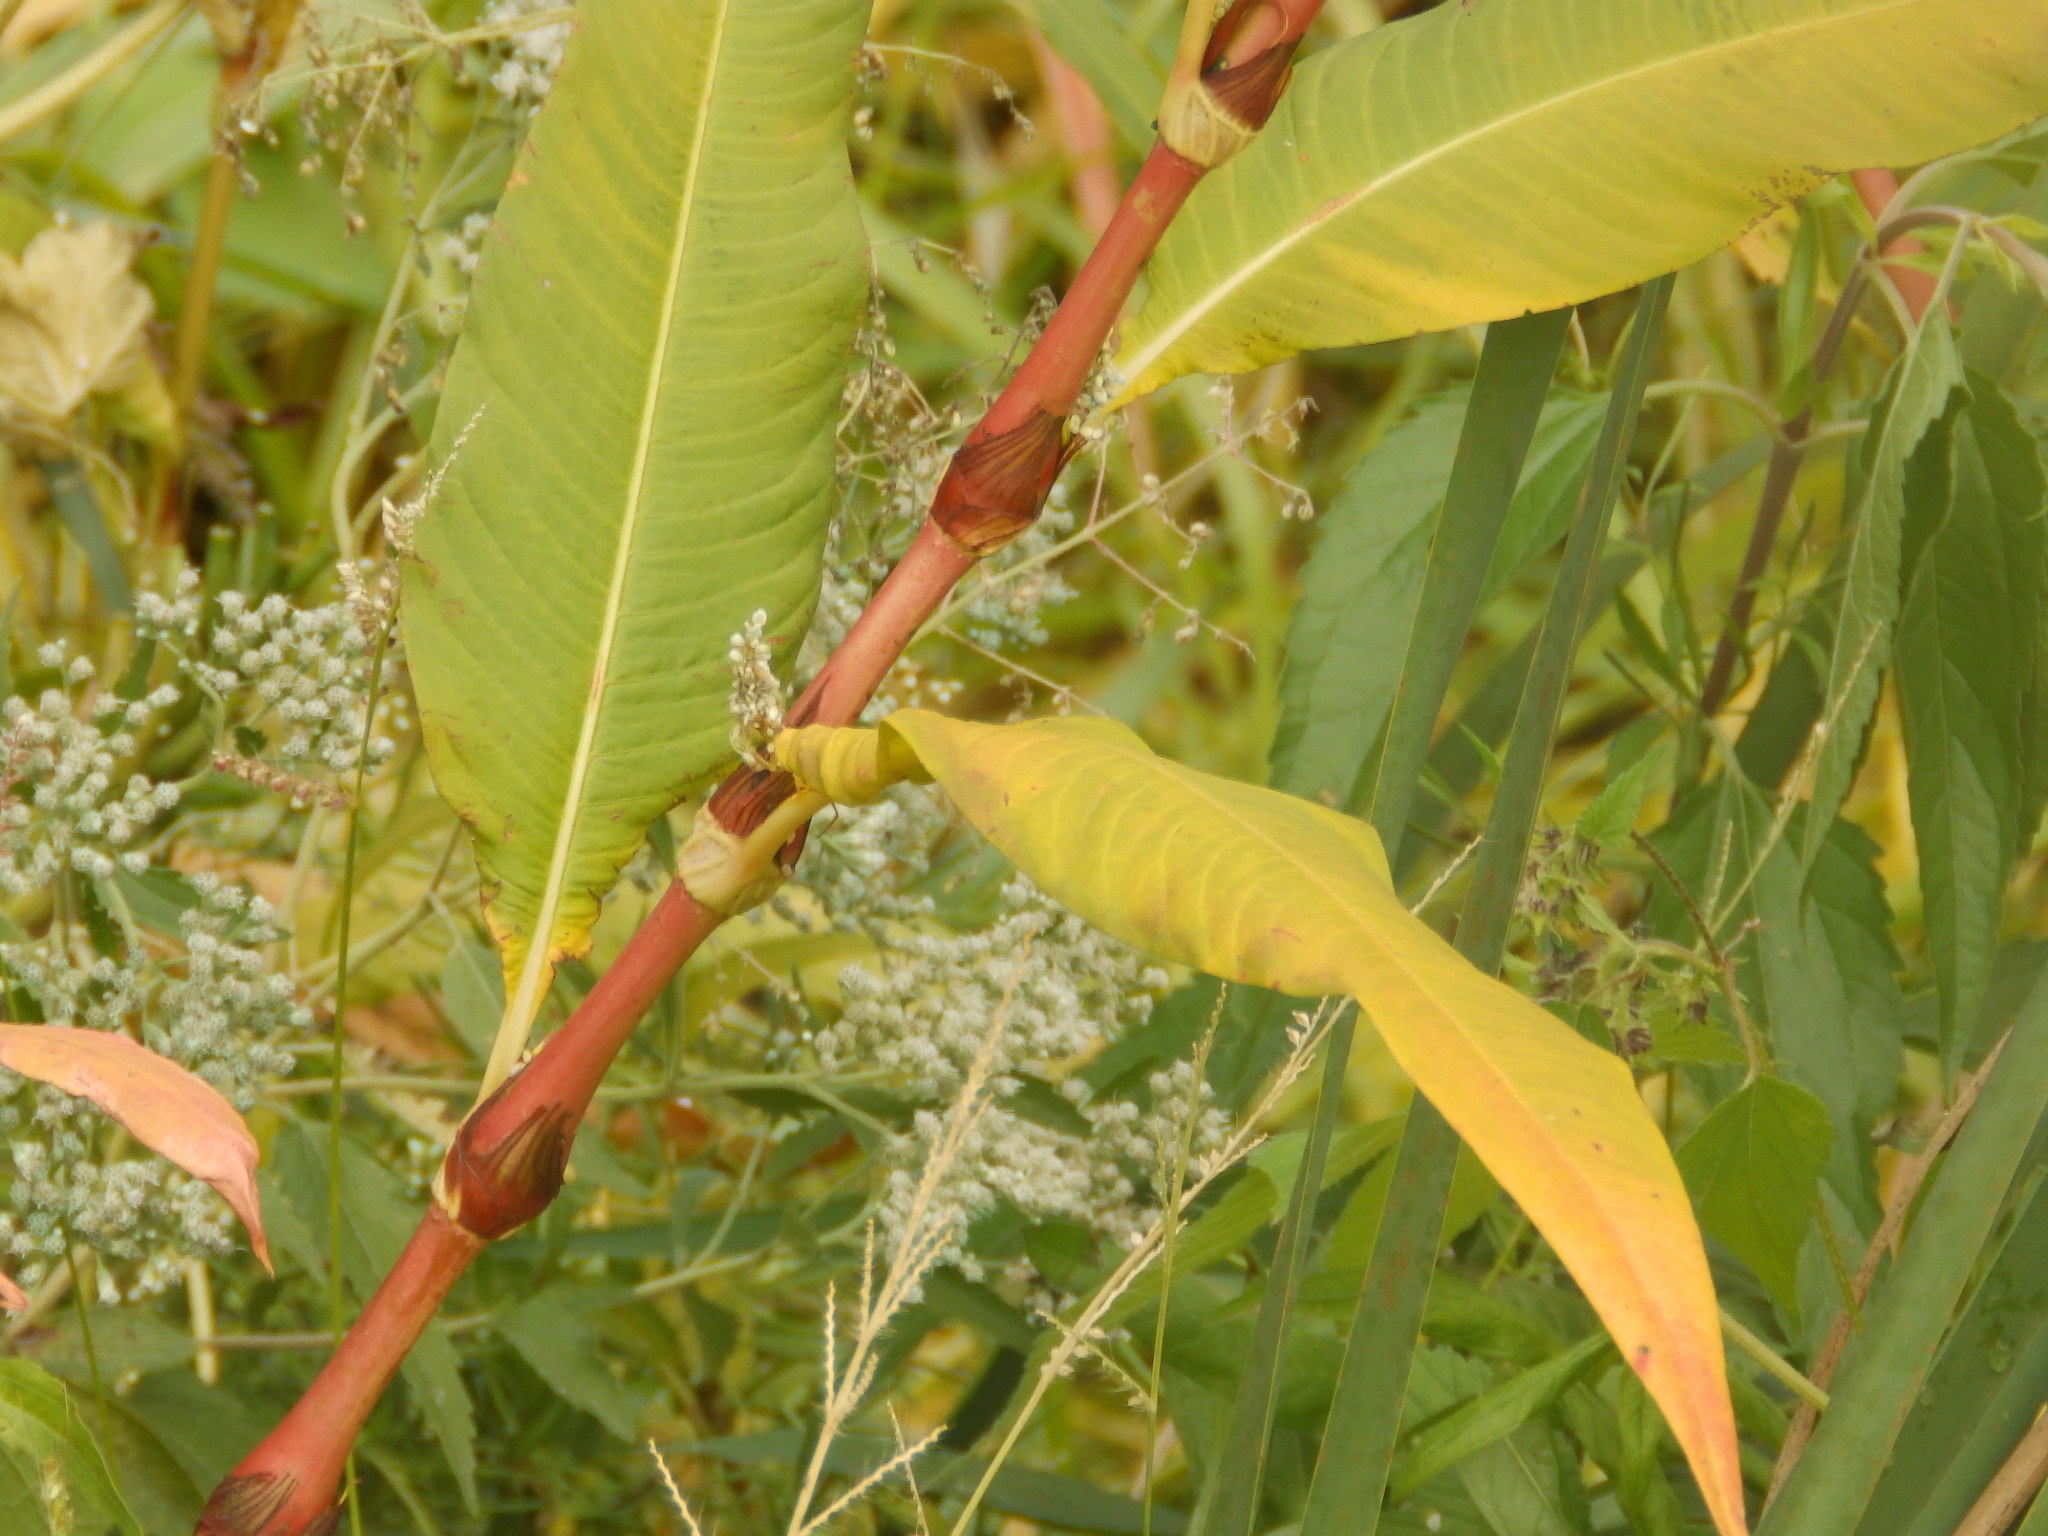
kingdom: Plantae
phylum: Tracheophyta
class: Magnoliopsida
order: Caryophyllales
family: Polygonaceae
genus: Persicaria
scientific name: Persicaria lapathifolia
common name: Curlytop knotweed
